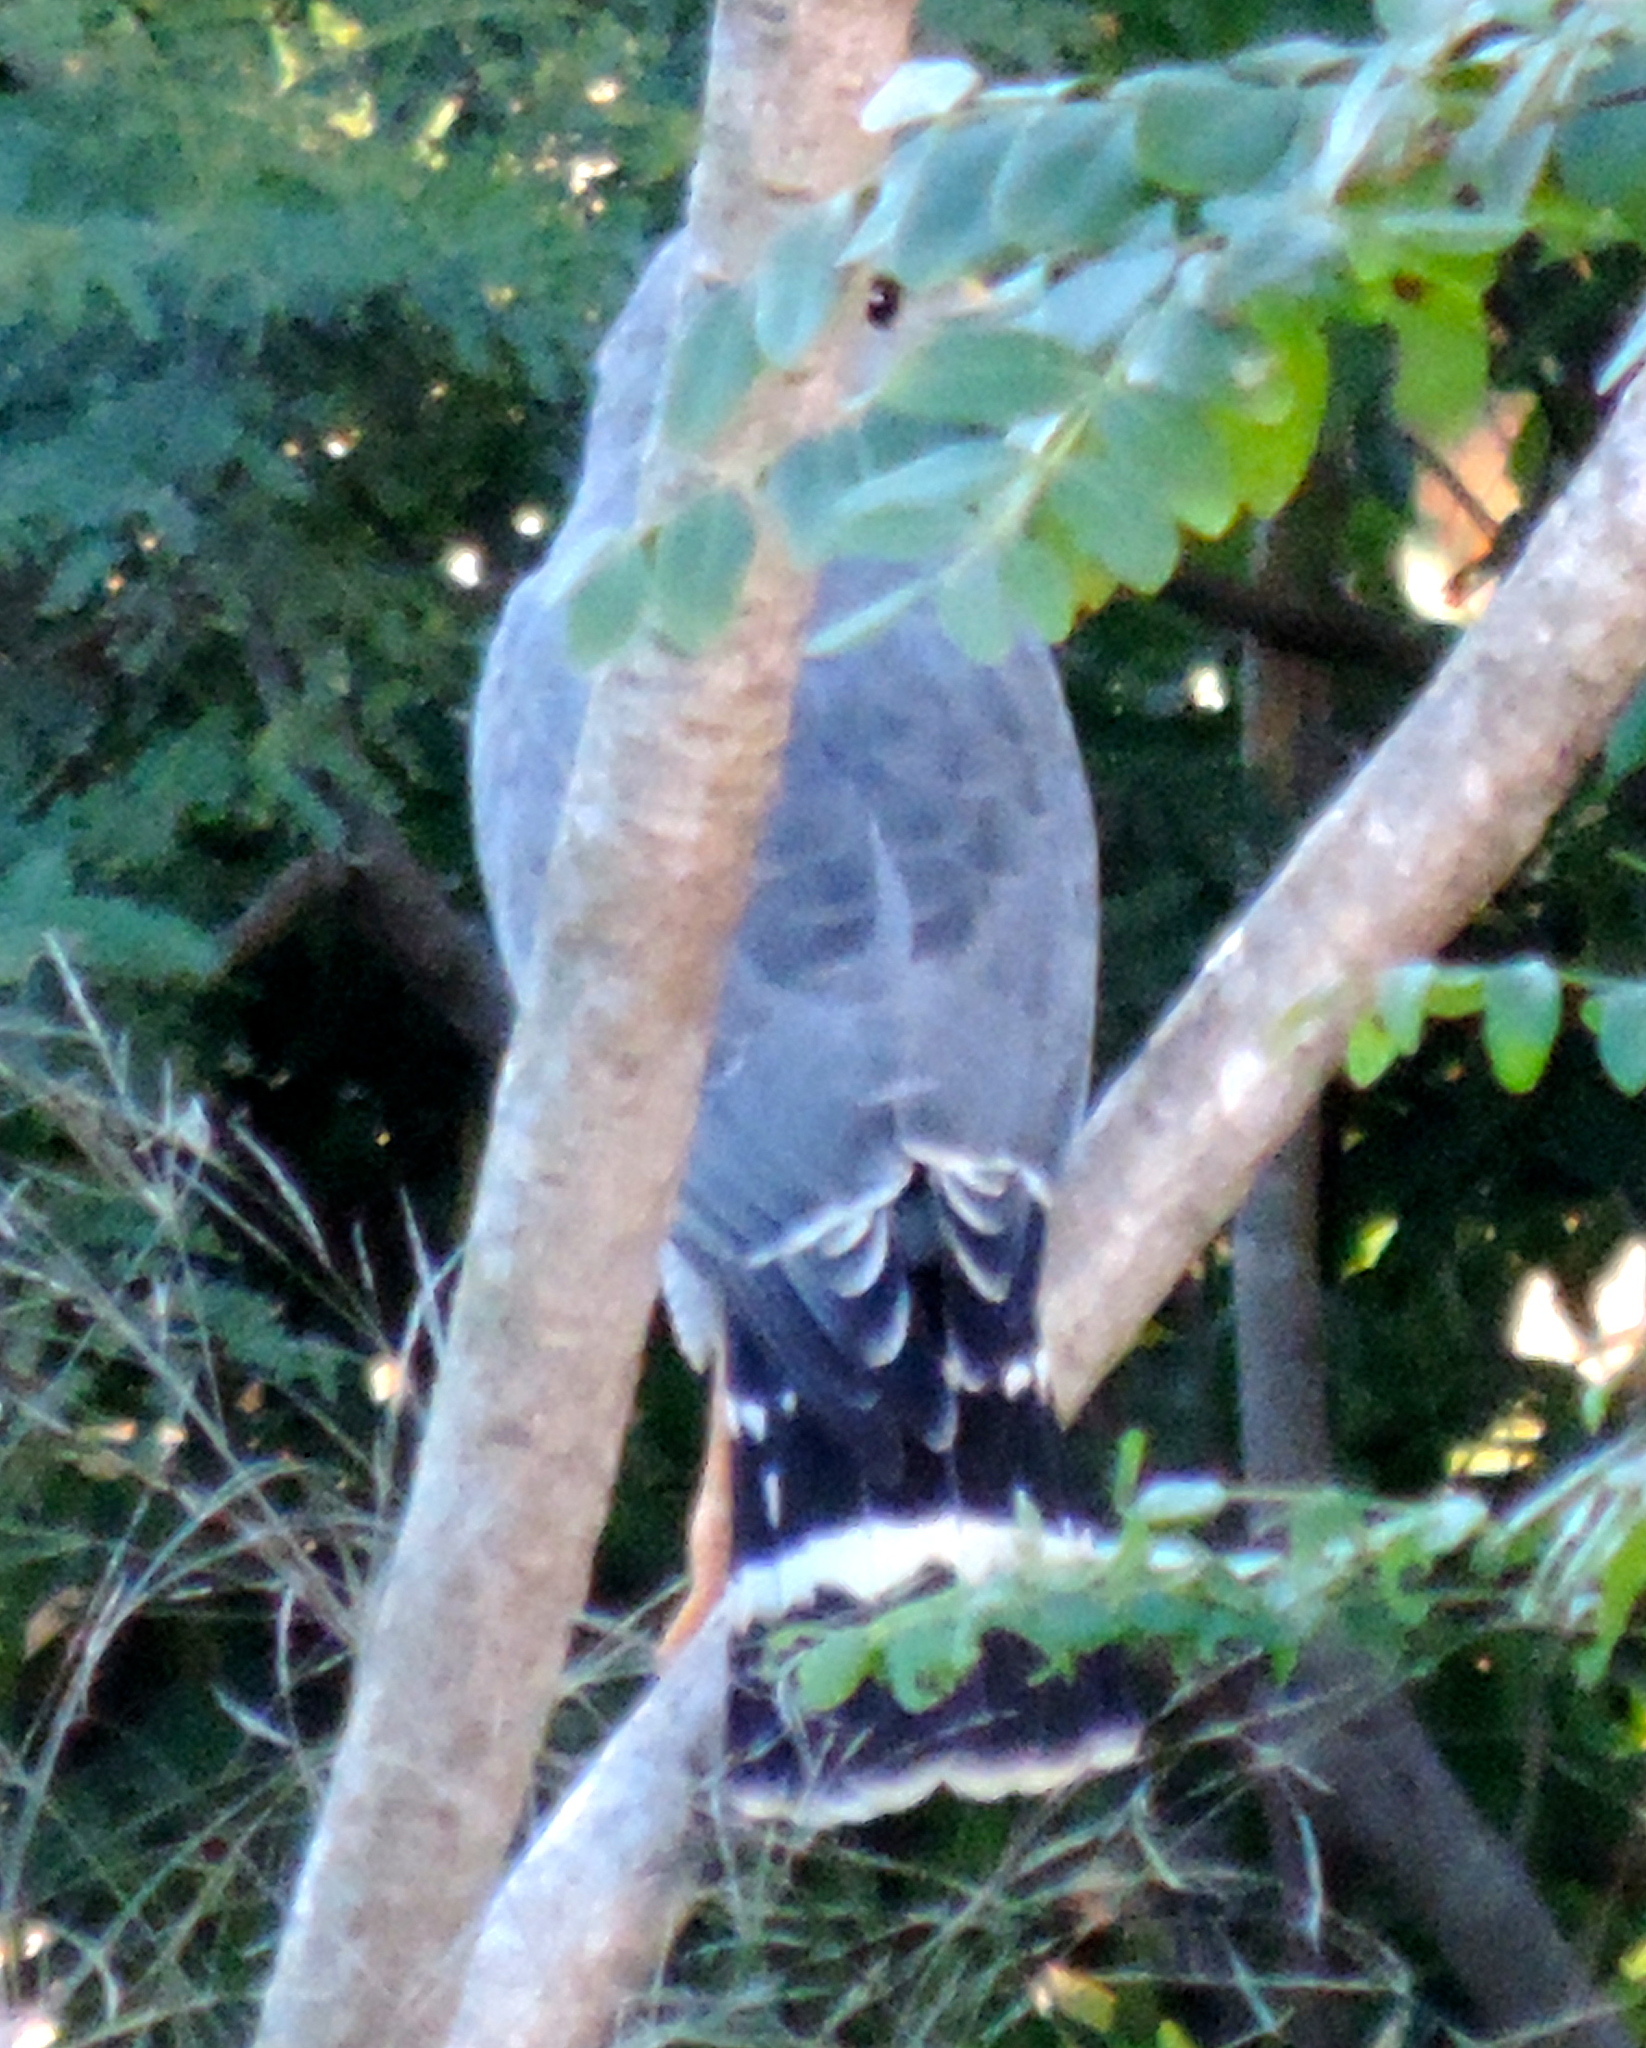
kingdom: Animalia
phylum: Chordata
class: Aves
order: Accipitriformes
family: Accipitridae
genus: Buteo
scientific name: Buteo nitidus
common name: Grey-lined hawk
